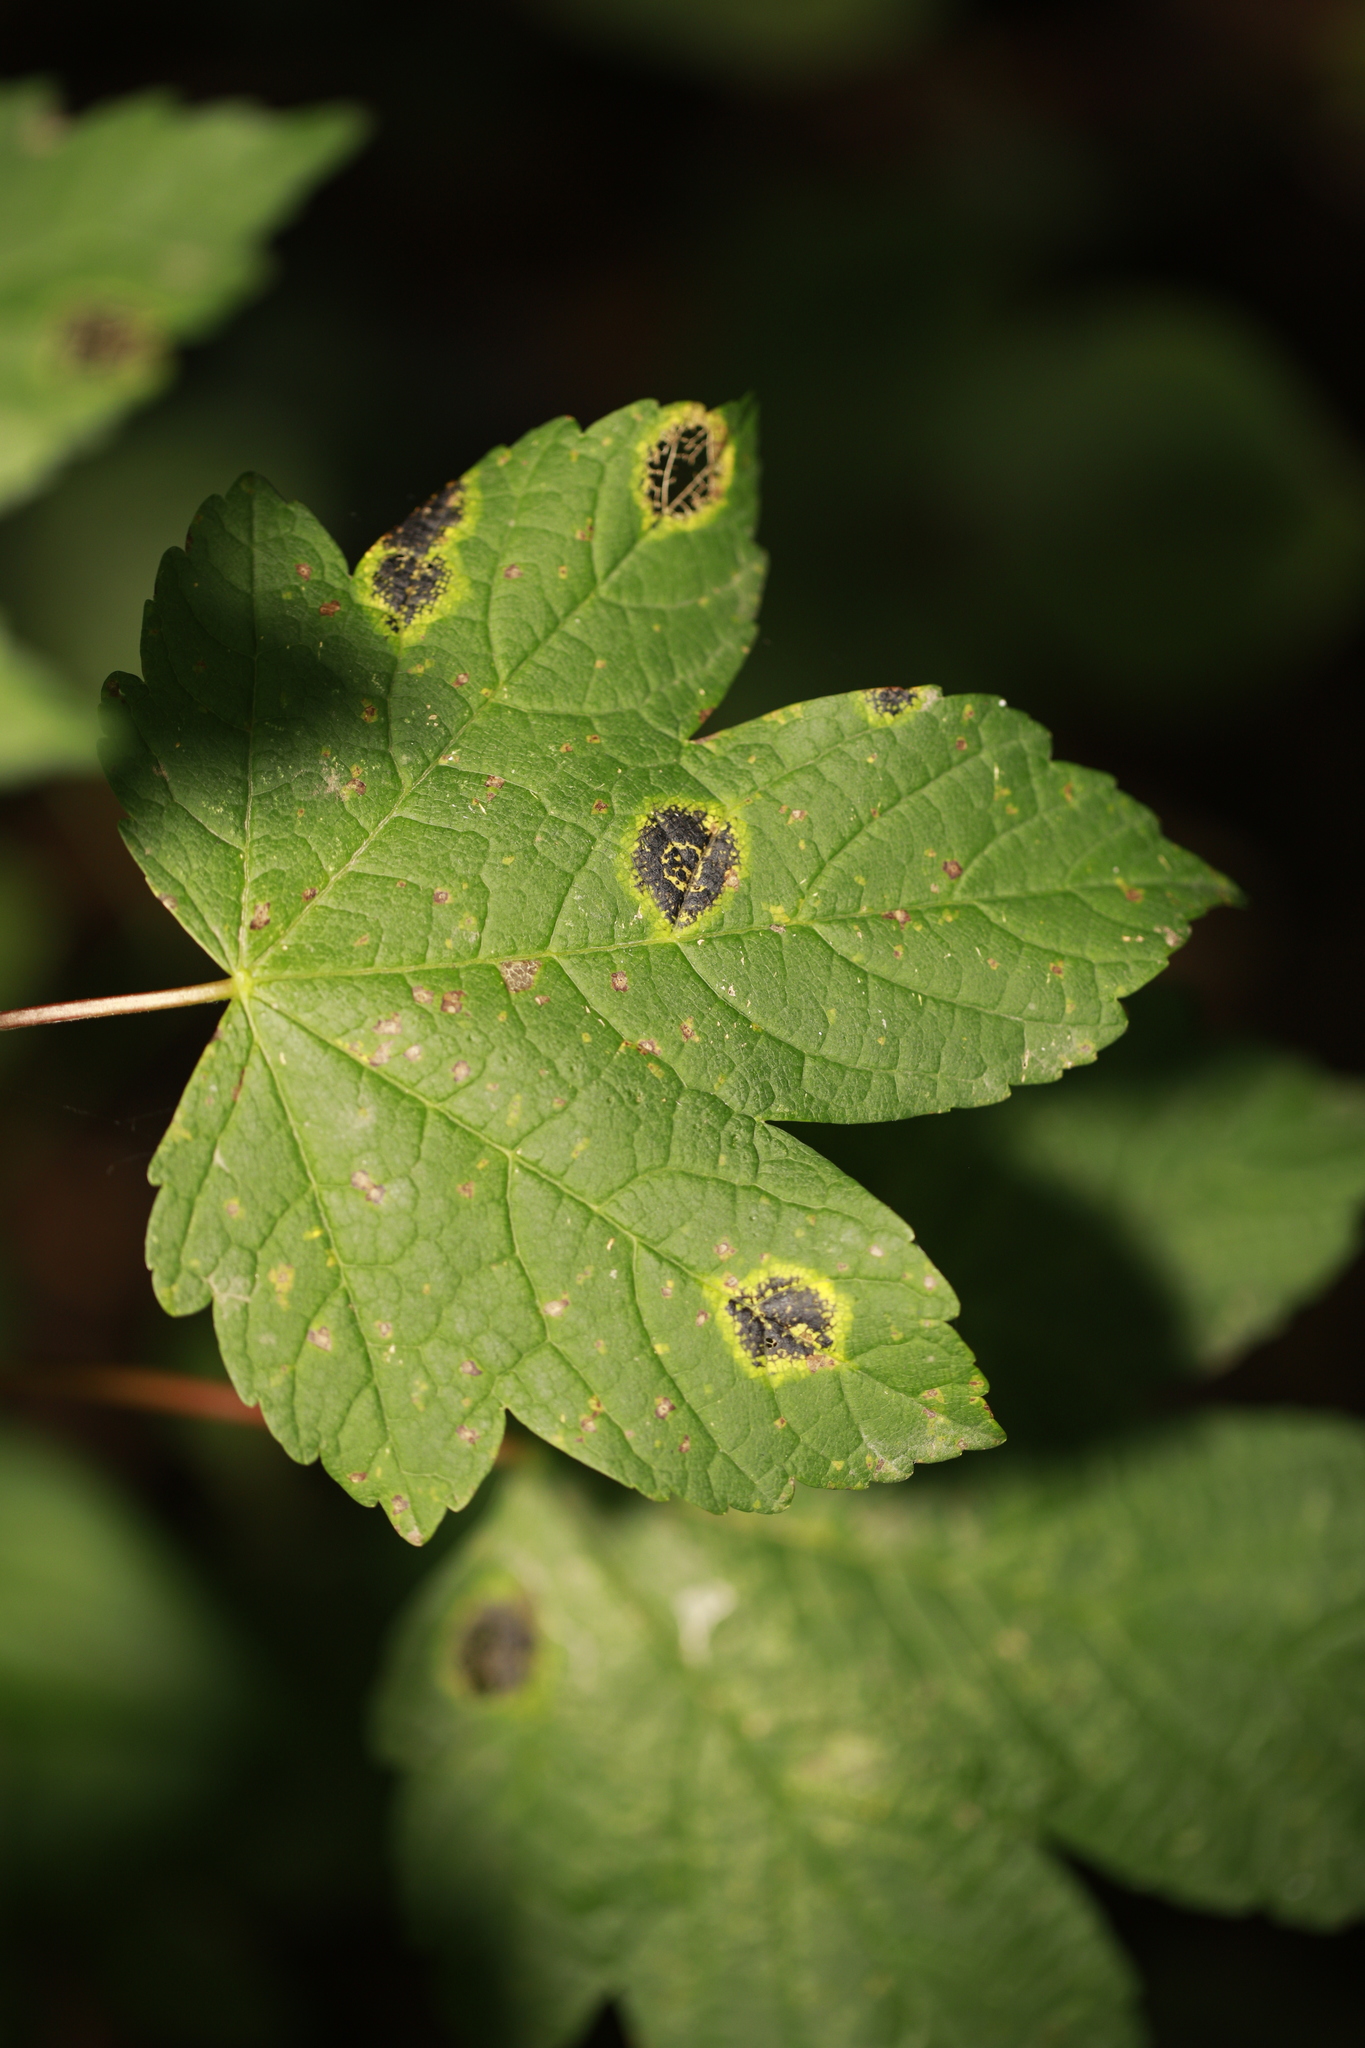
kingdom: Fungi
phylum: Ascomycota
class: Leotiomycetes
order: Rhytismatales
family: Rhytismataceae
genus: Rhytisma
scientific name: Rhytisma acerinum
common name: European tar spot
